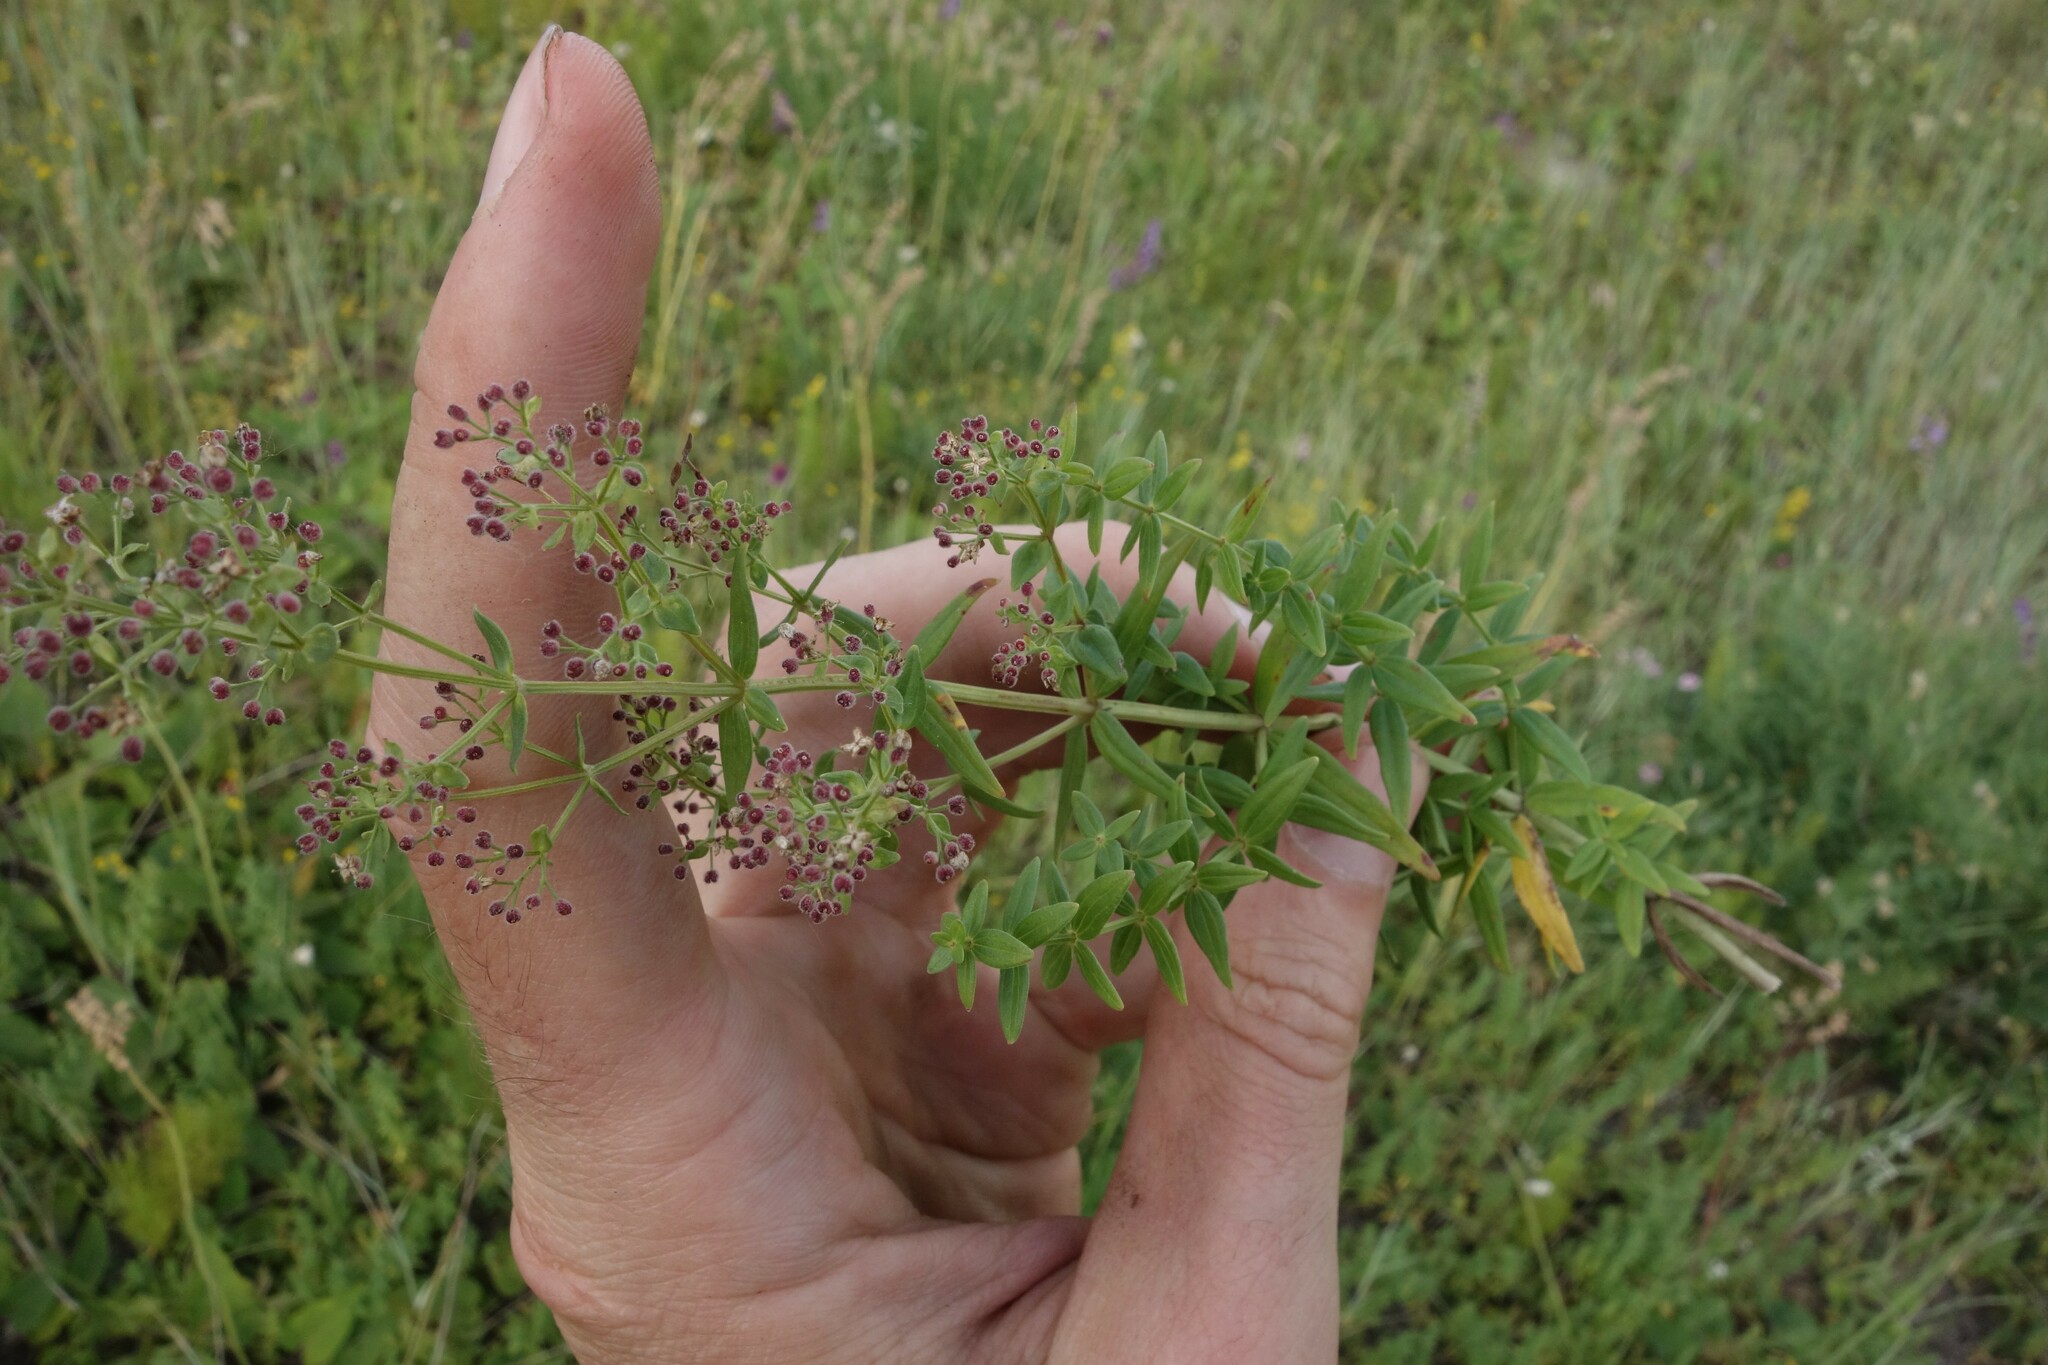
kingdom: Plantae
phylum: Tracheophyta
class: Magnoliopsida
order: Gentianales
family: Rubiaceae
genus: Galium
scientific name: Galium boreale
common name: Northern bedstraw
